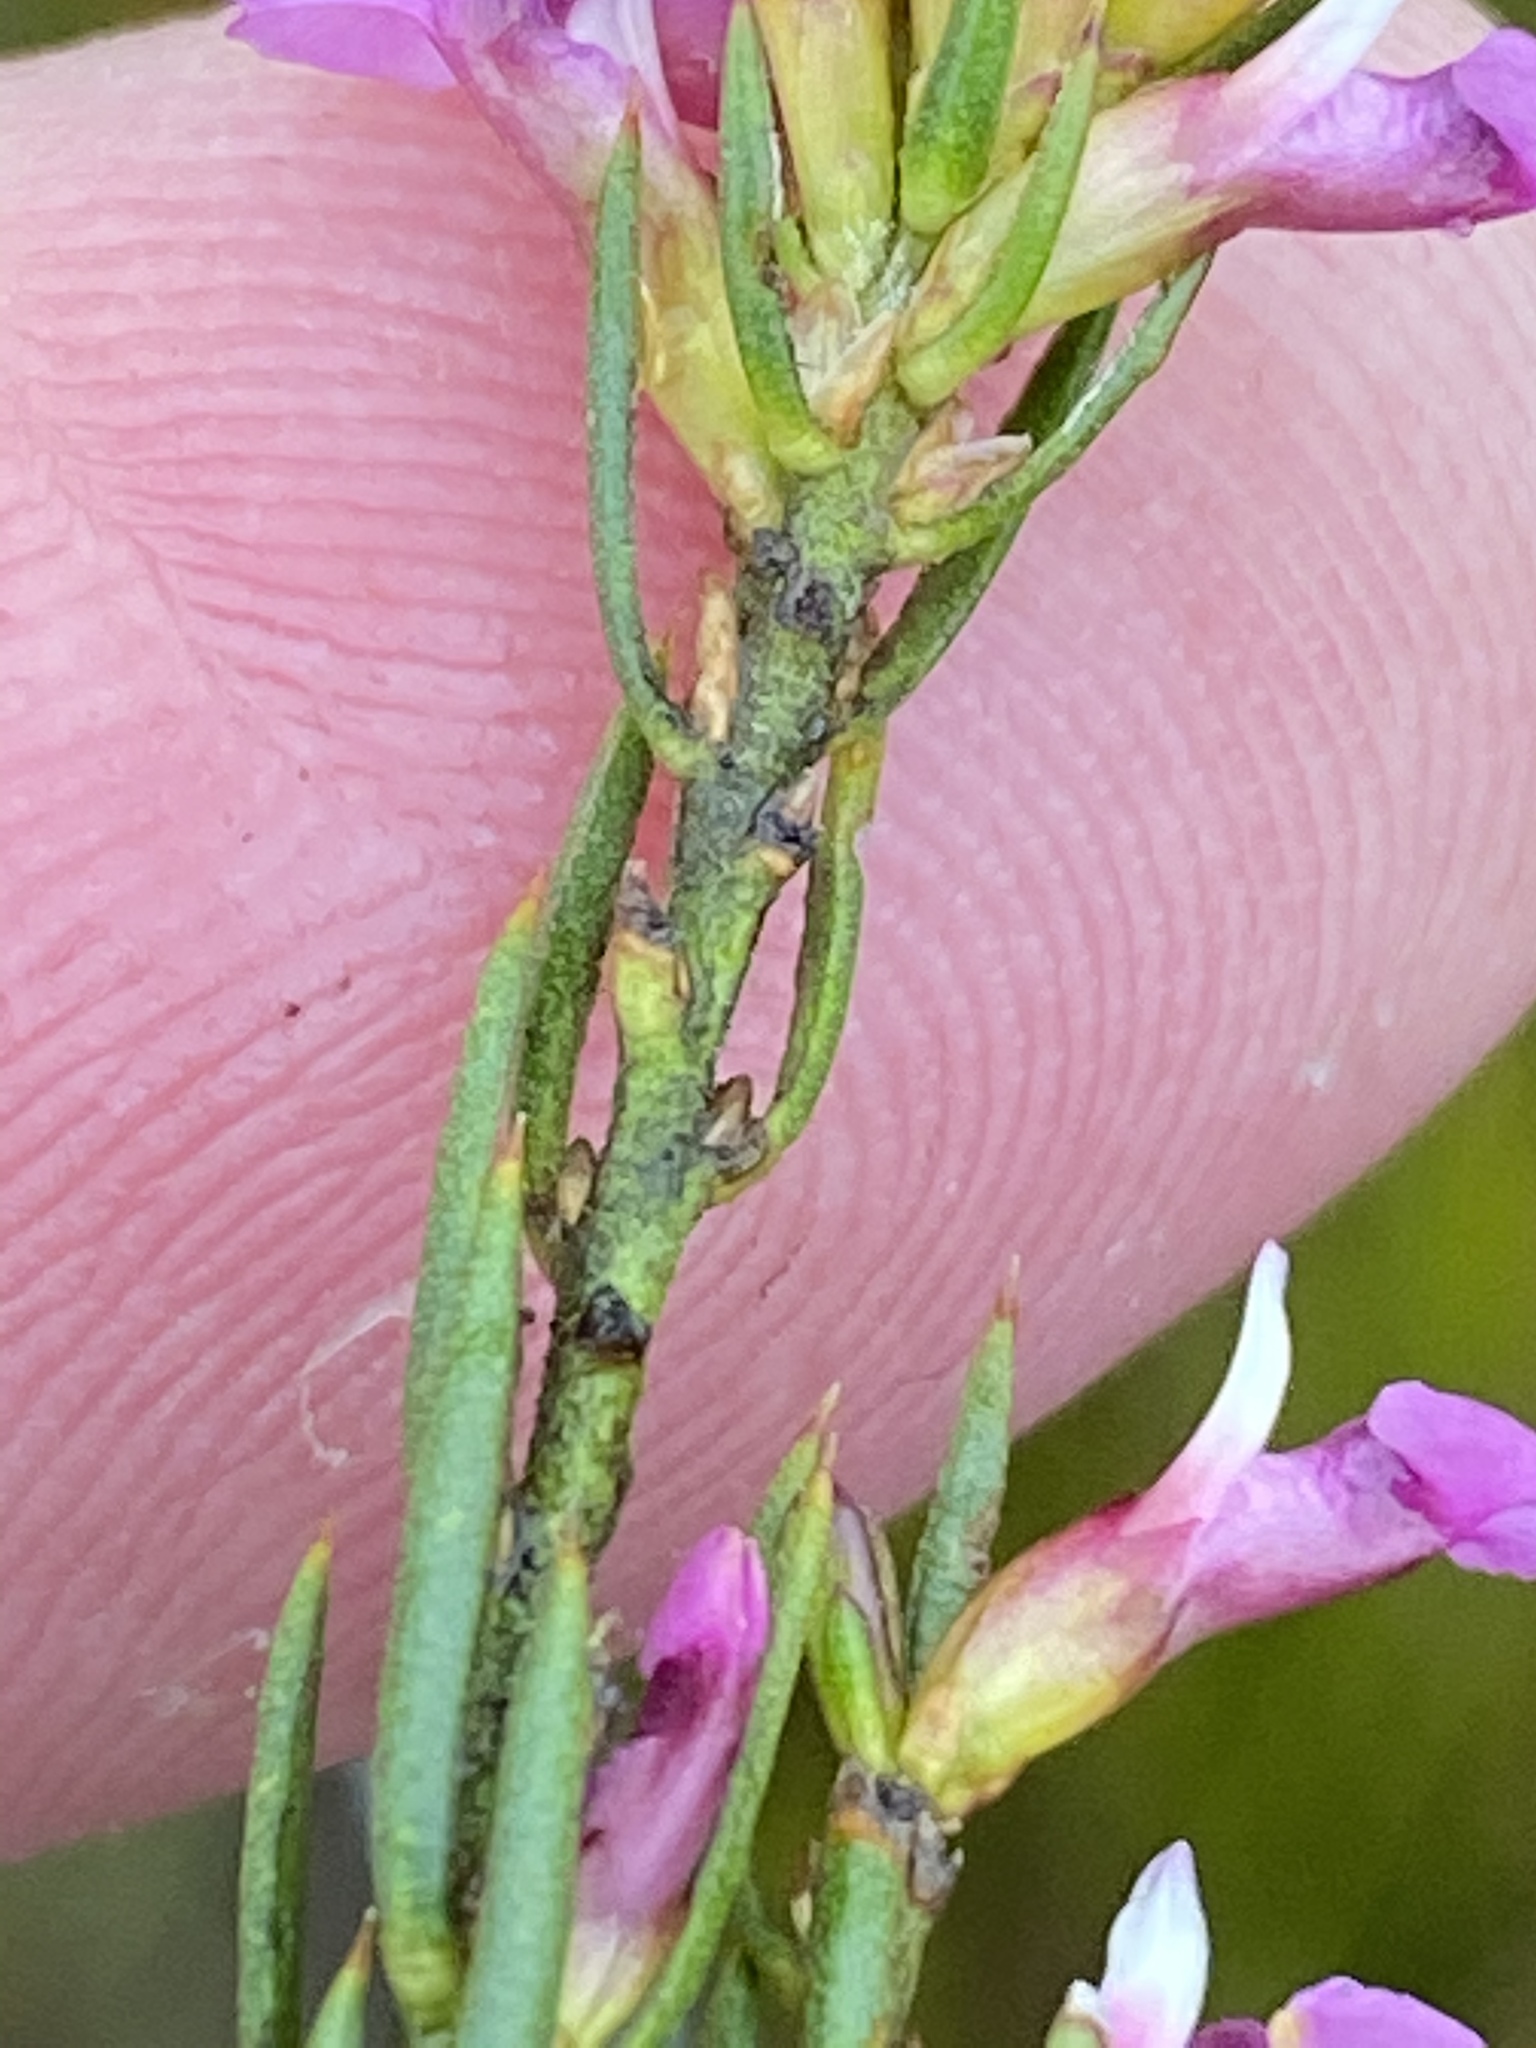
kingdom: Plantae
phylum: Tracheophyta
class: Magnoliopsida
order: Fabales
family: Polygalaceae
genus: Muraltia
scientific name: Muraltia hyssopifolia
